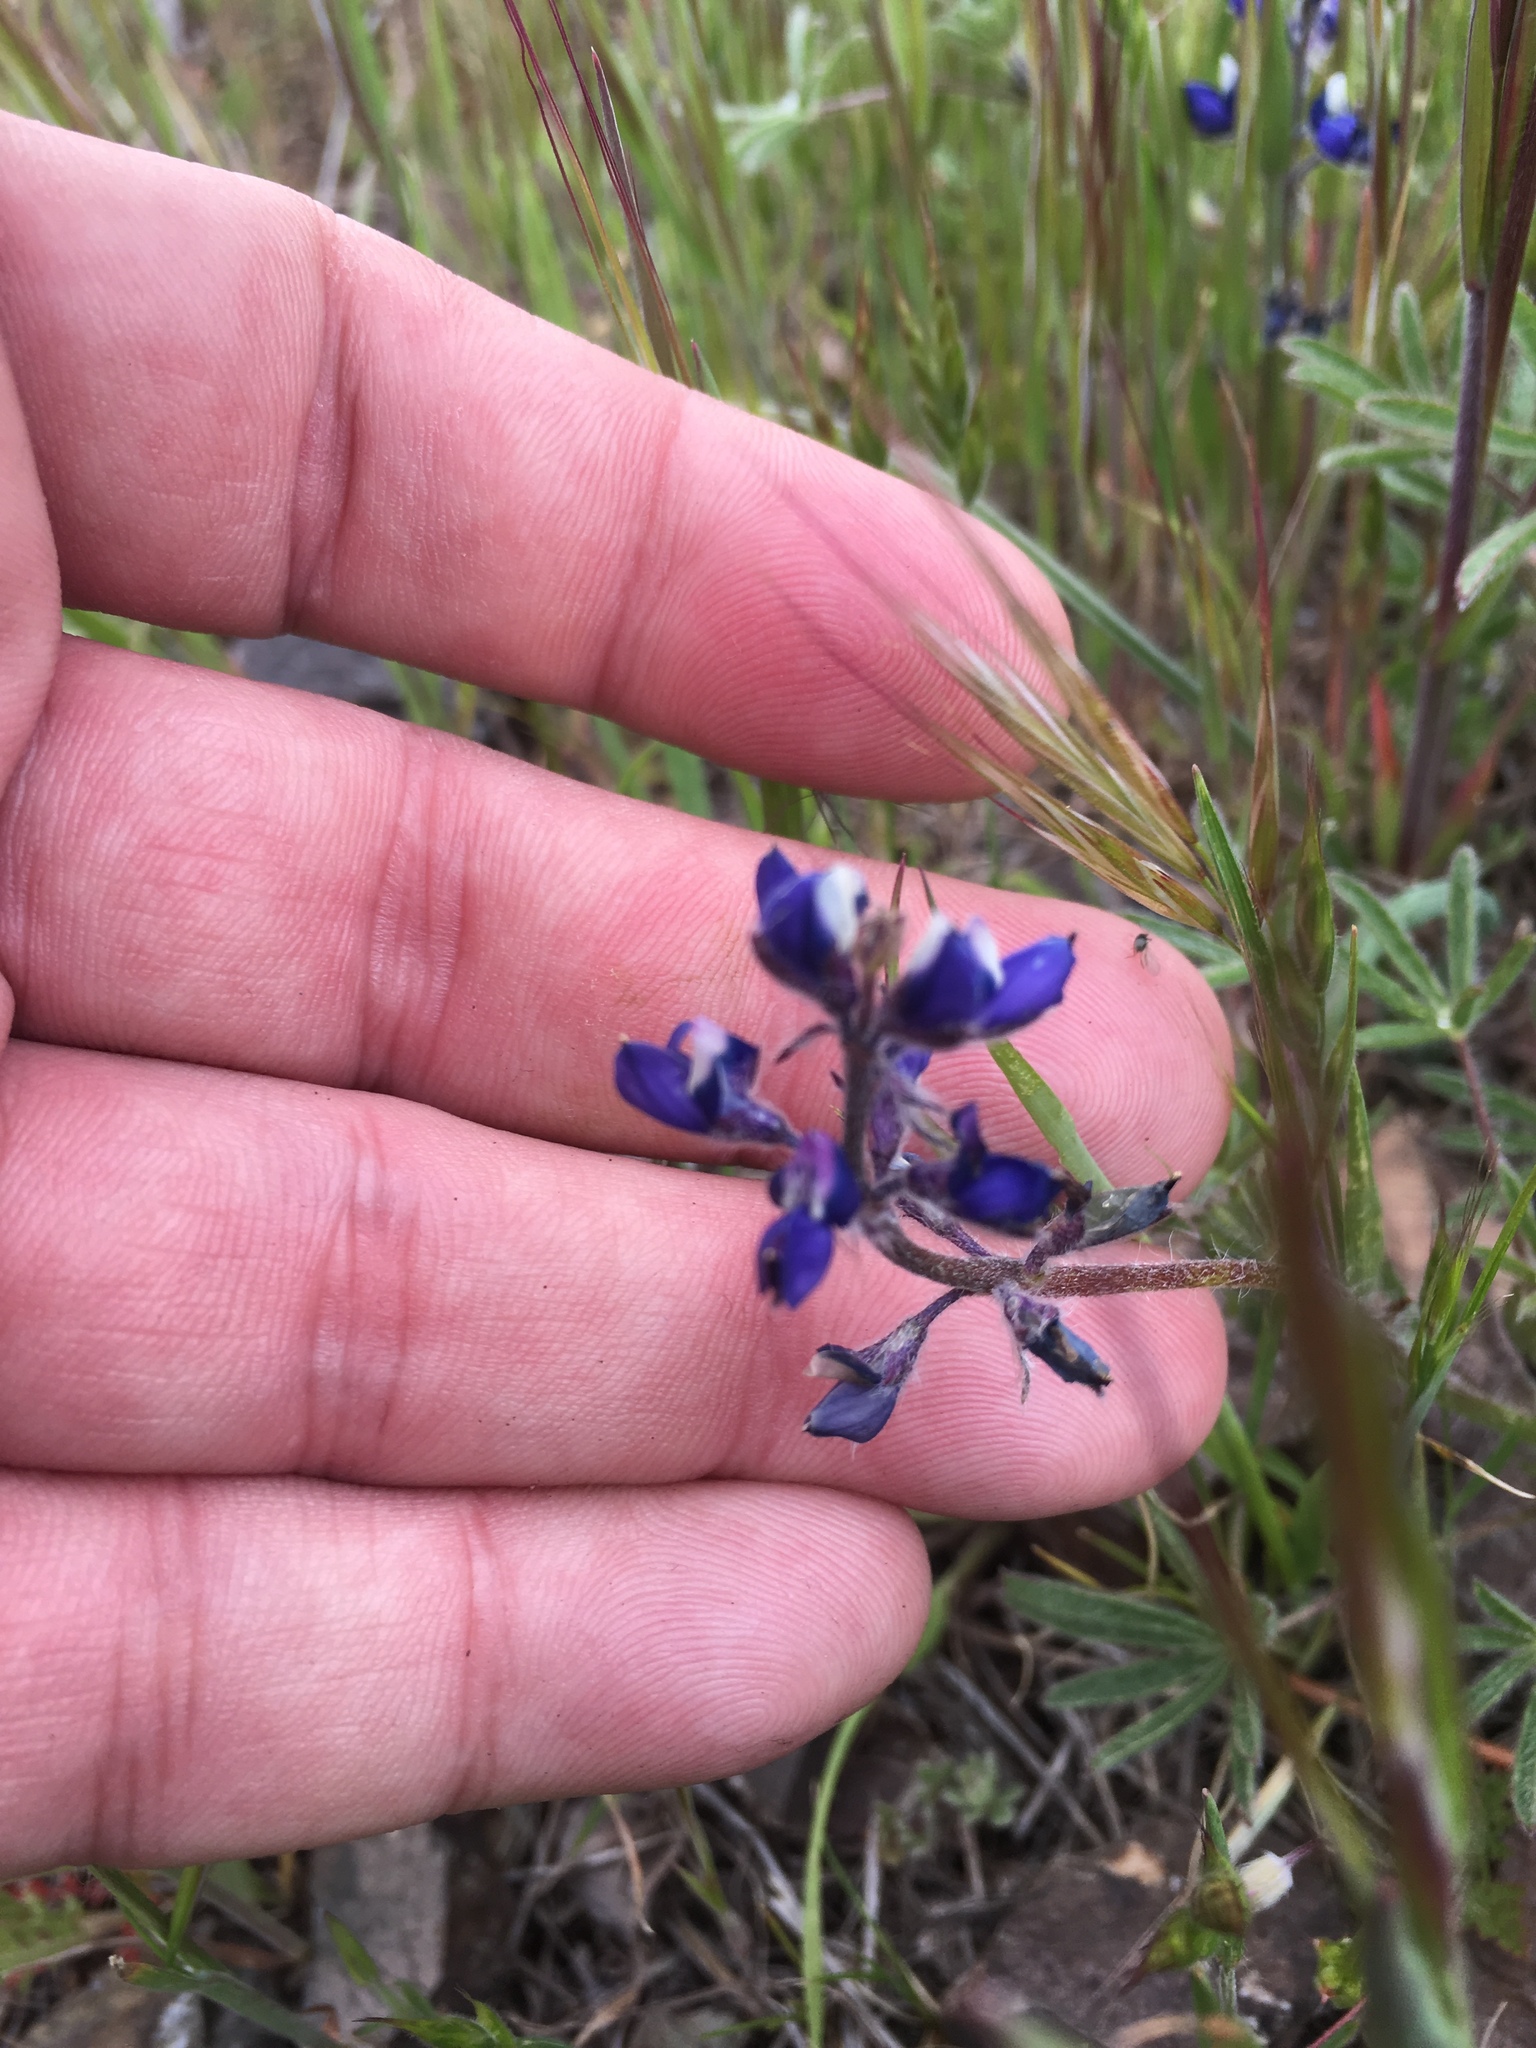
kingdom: Plantae
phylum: Tracheophyta
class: Magnoliopsida
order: Fabales
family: Fabaceae
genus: Lupinus
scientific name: Lupinus bicolor
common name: Miniature lupine
